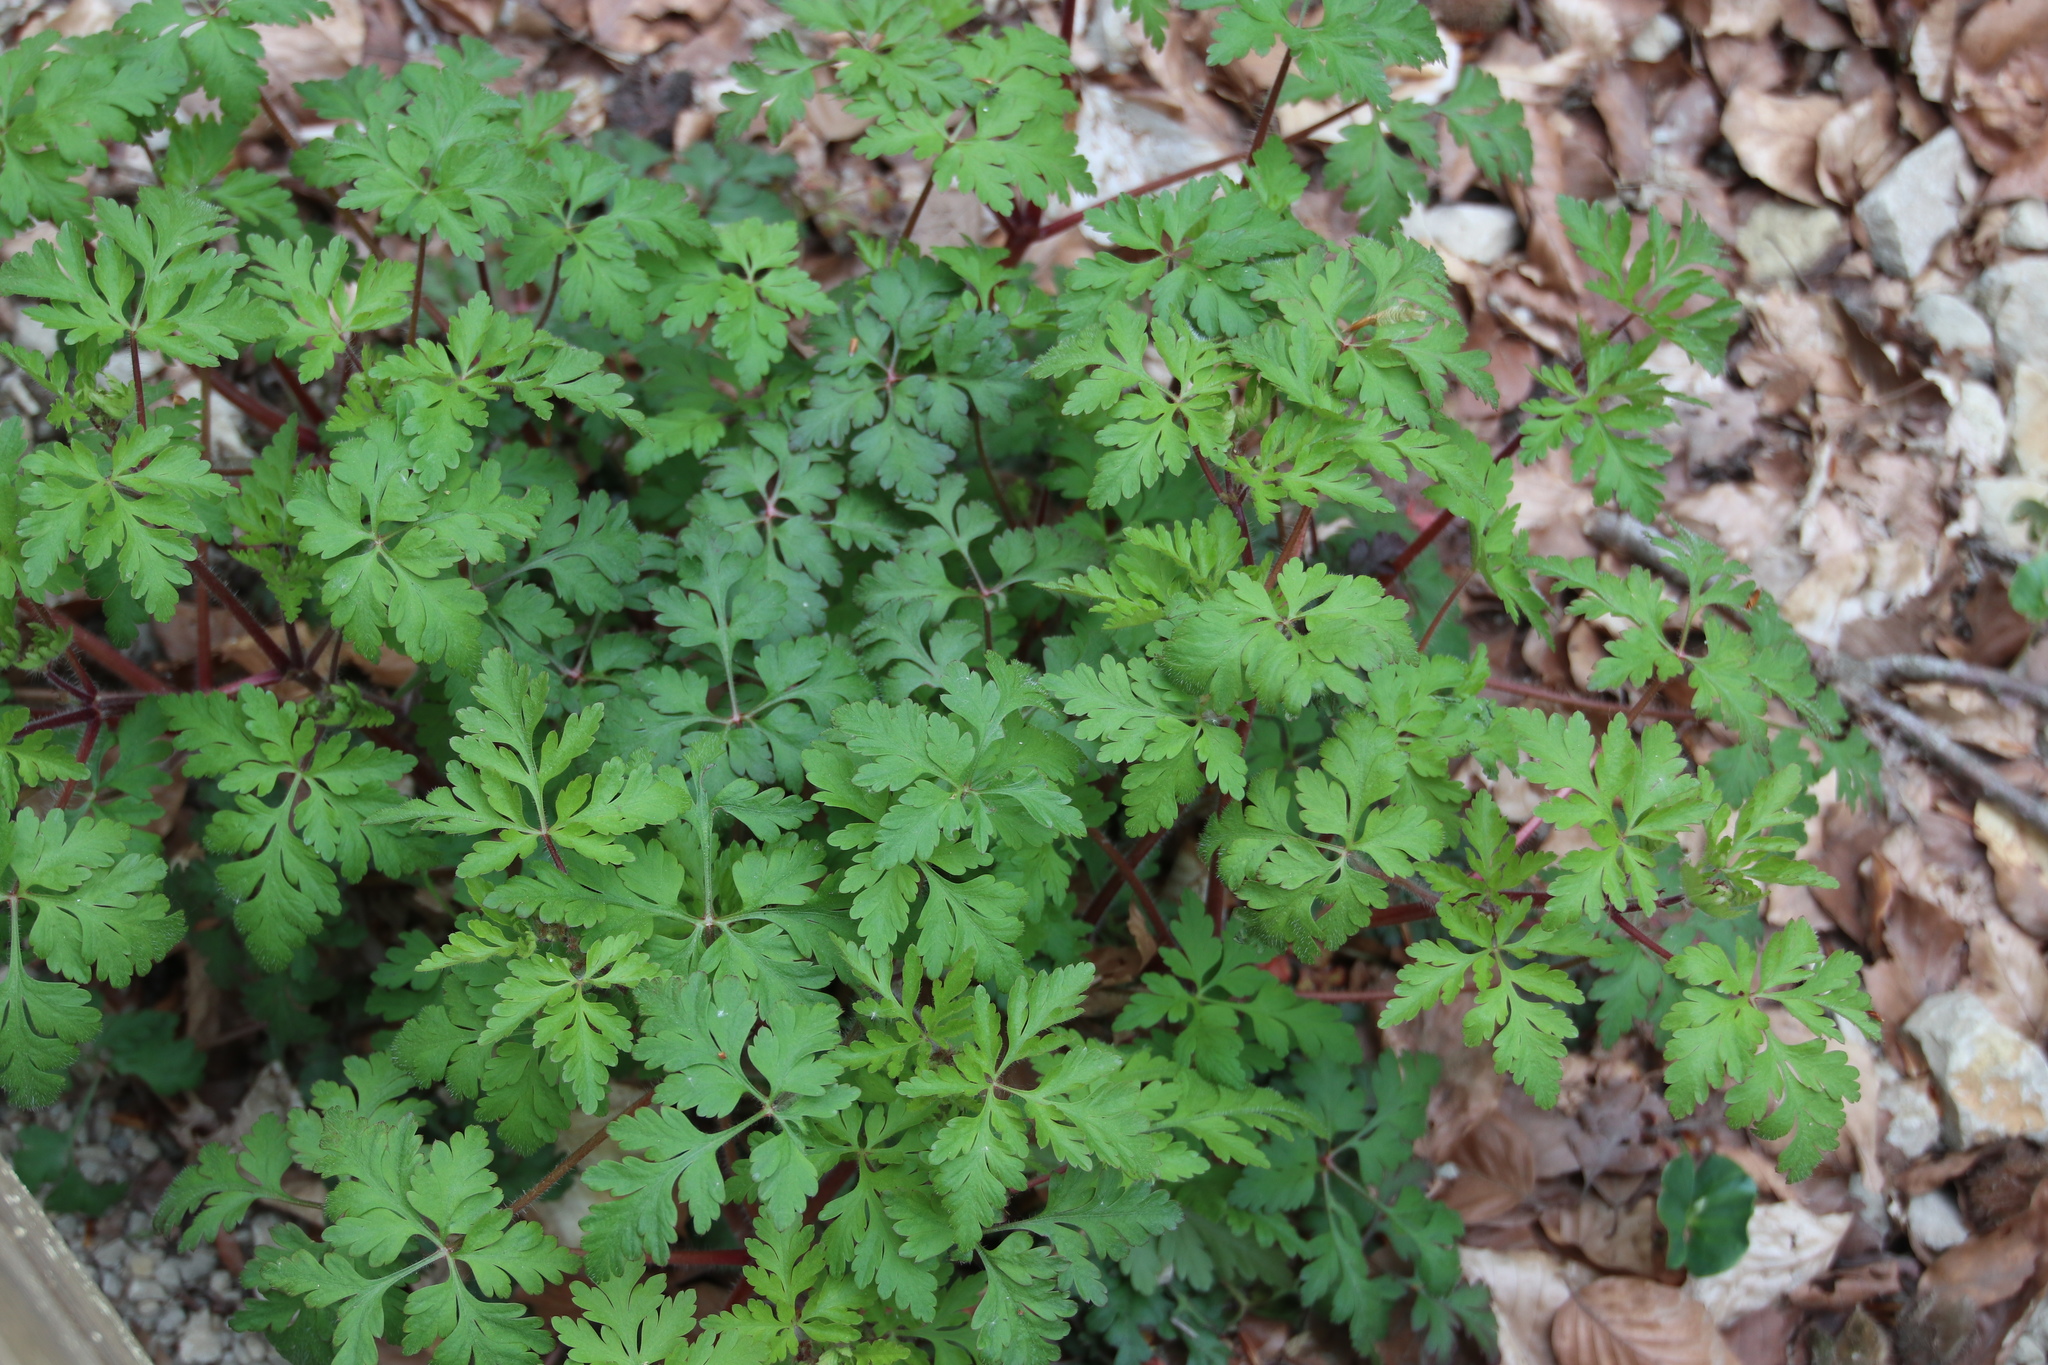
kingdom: Plantae
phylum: Tracheophyta
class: Magnoliopsida
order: Geraniales
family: Geraniaceae
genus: Geranium
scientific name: Geranium robertianum
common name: Herb-robert
